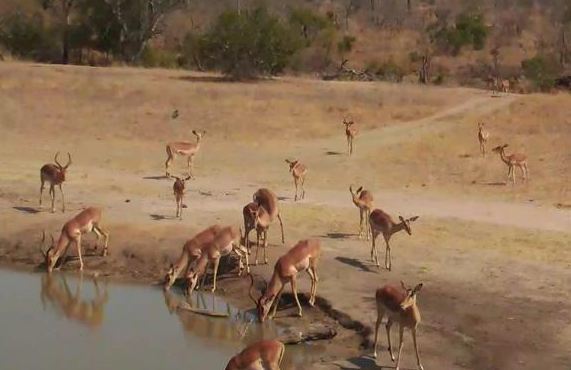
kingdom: Animalia
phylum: Chordata
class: Mammalia
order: Artiodactyla
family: Bovidae
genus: Aepyceros
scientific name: Aepyceros melampus
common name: Impala
